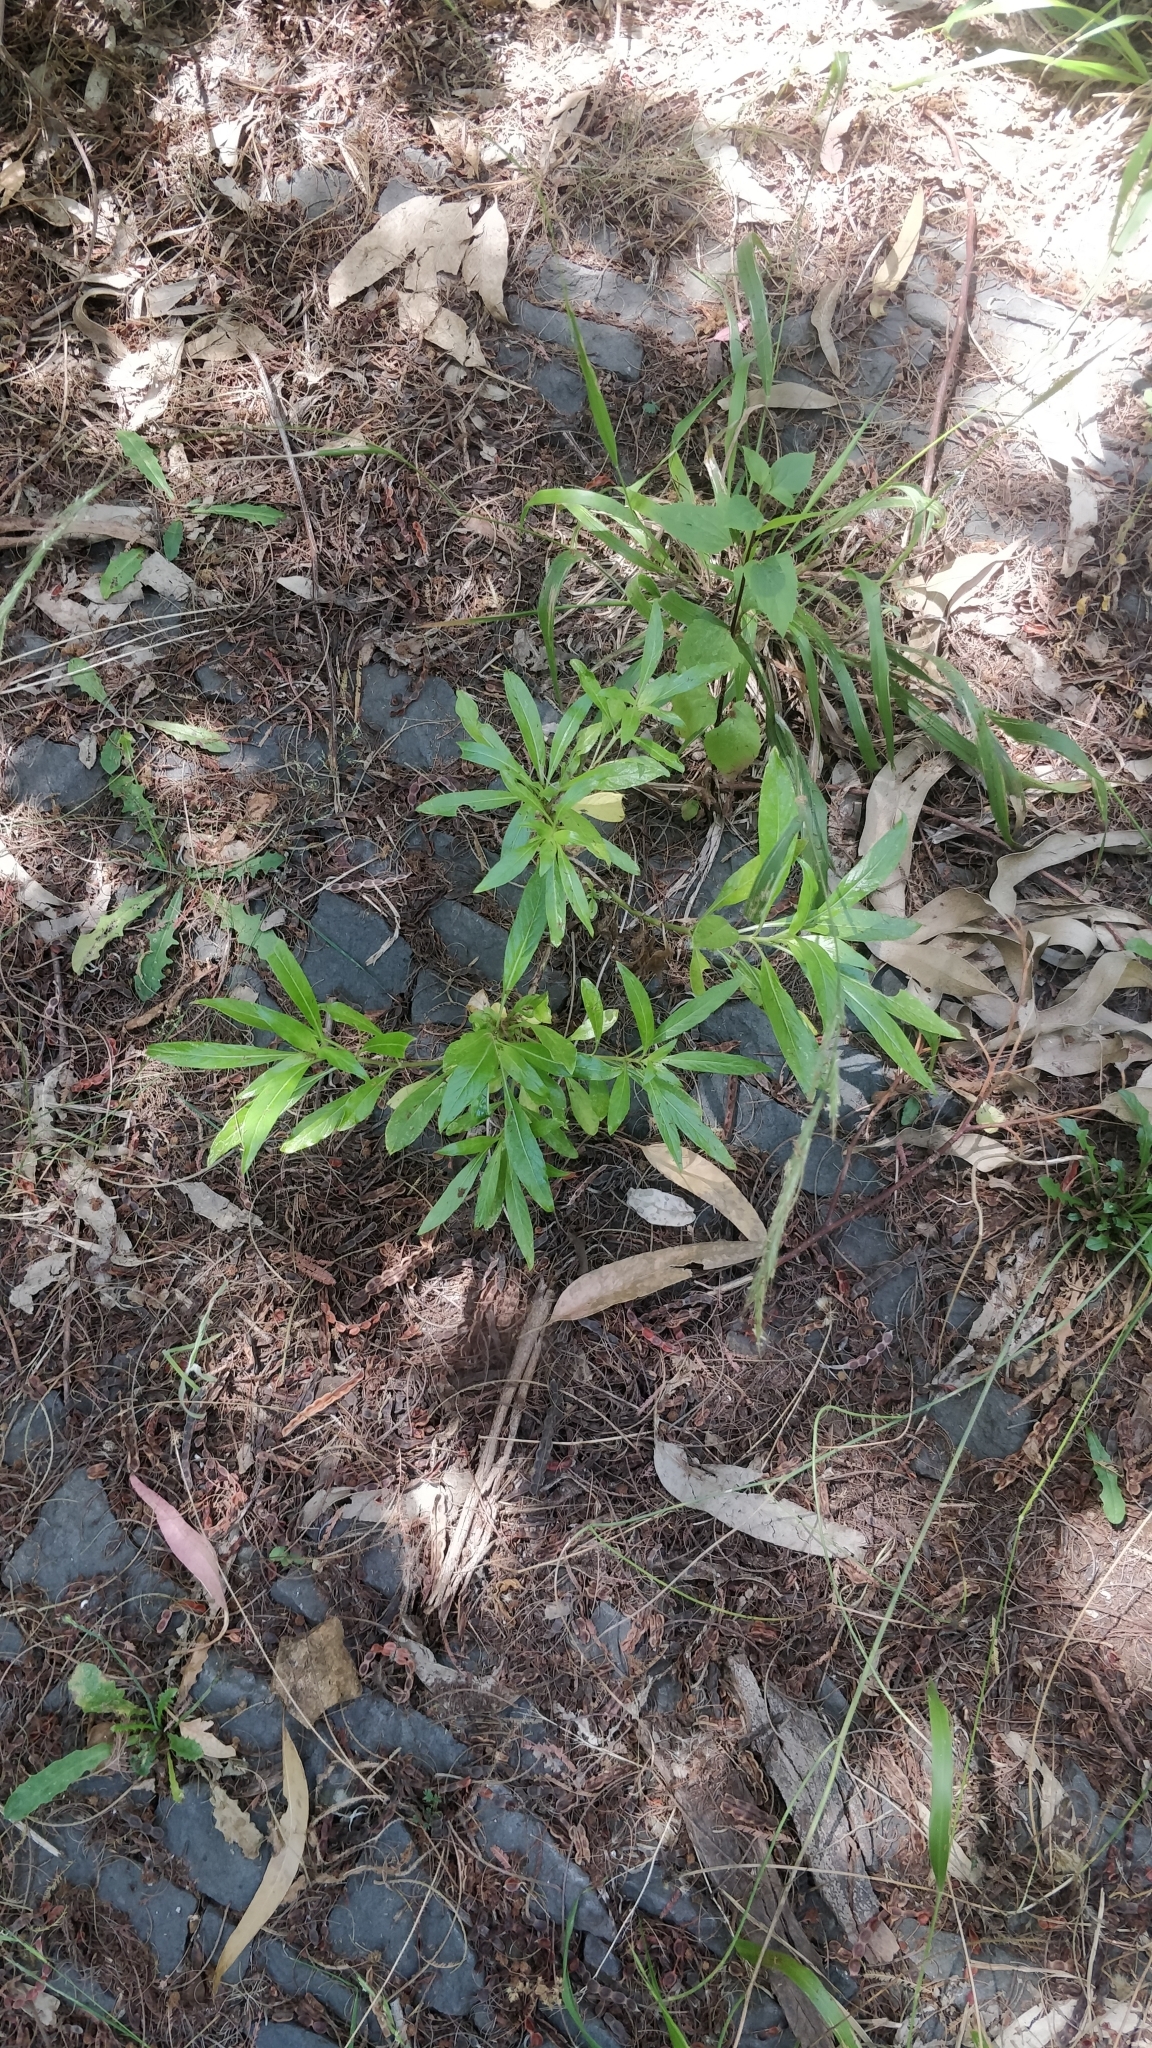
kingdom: Plantae
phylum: Tracheophyta
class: Magnoliopsida
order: Gentianales
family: Rubiaceae
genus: Phyllis
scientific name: Phyllis nobla
